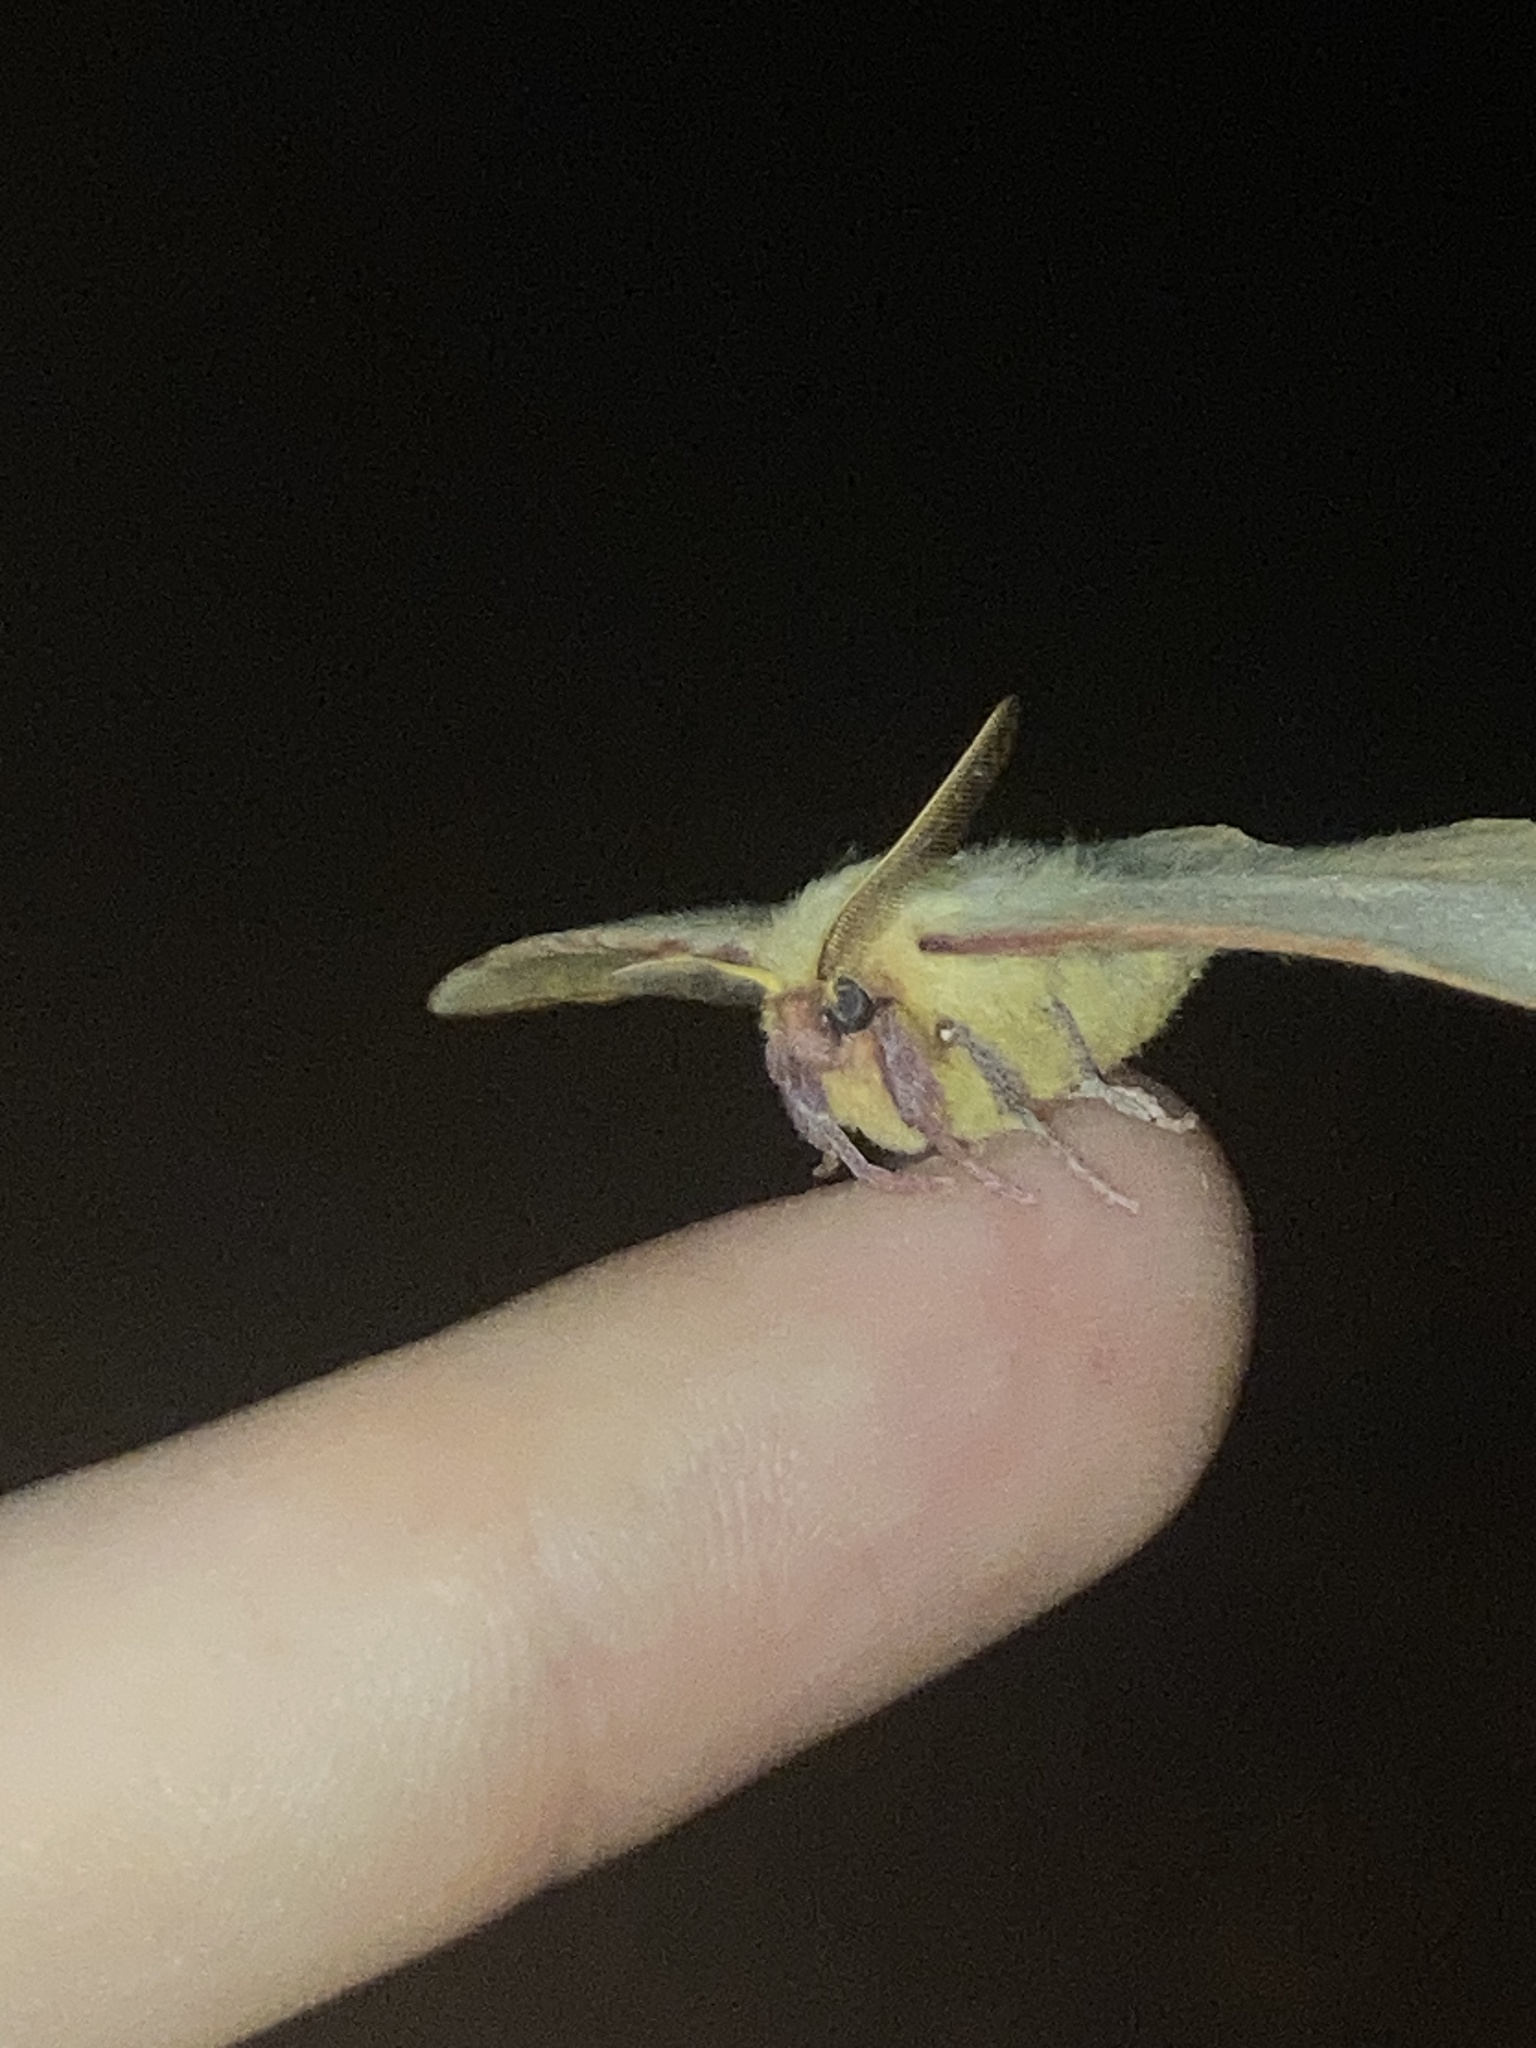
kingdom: Animalia
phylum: Arthropoda
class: Insecta
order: Lepidoptera
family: Anthelidae
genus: Anthela
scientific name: Anthela acuta
